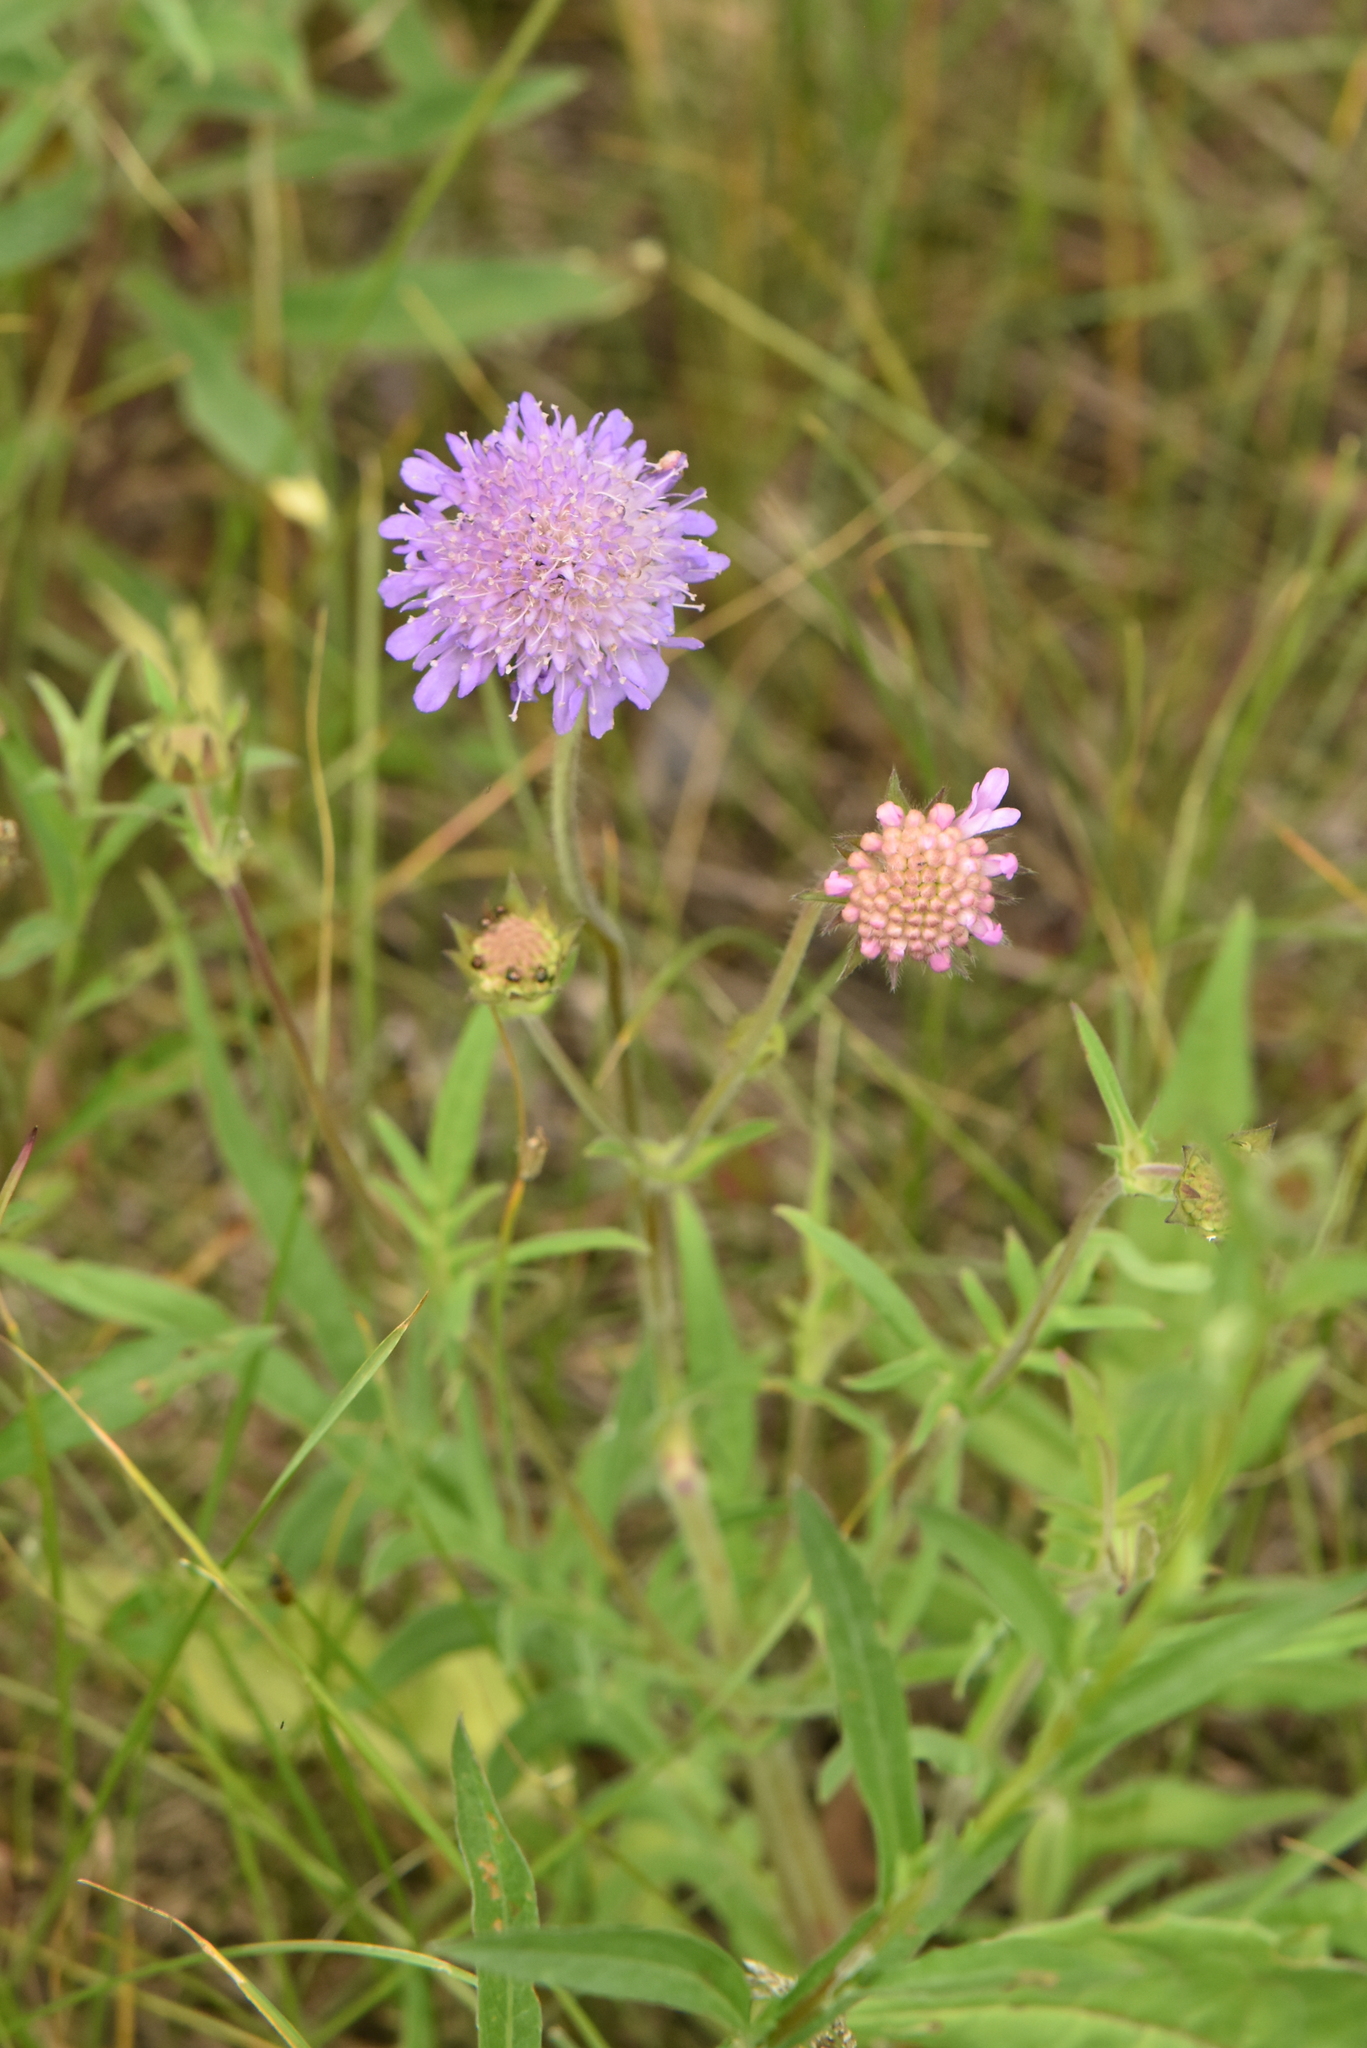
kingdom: Plantae
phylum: Tracheophyta
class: Magnoliopsida
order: Dipsacales
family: Caprifoliaceae
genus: Knautia
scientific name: Knautia arvensis
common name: Field scabiosa
